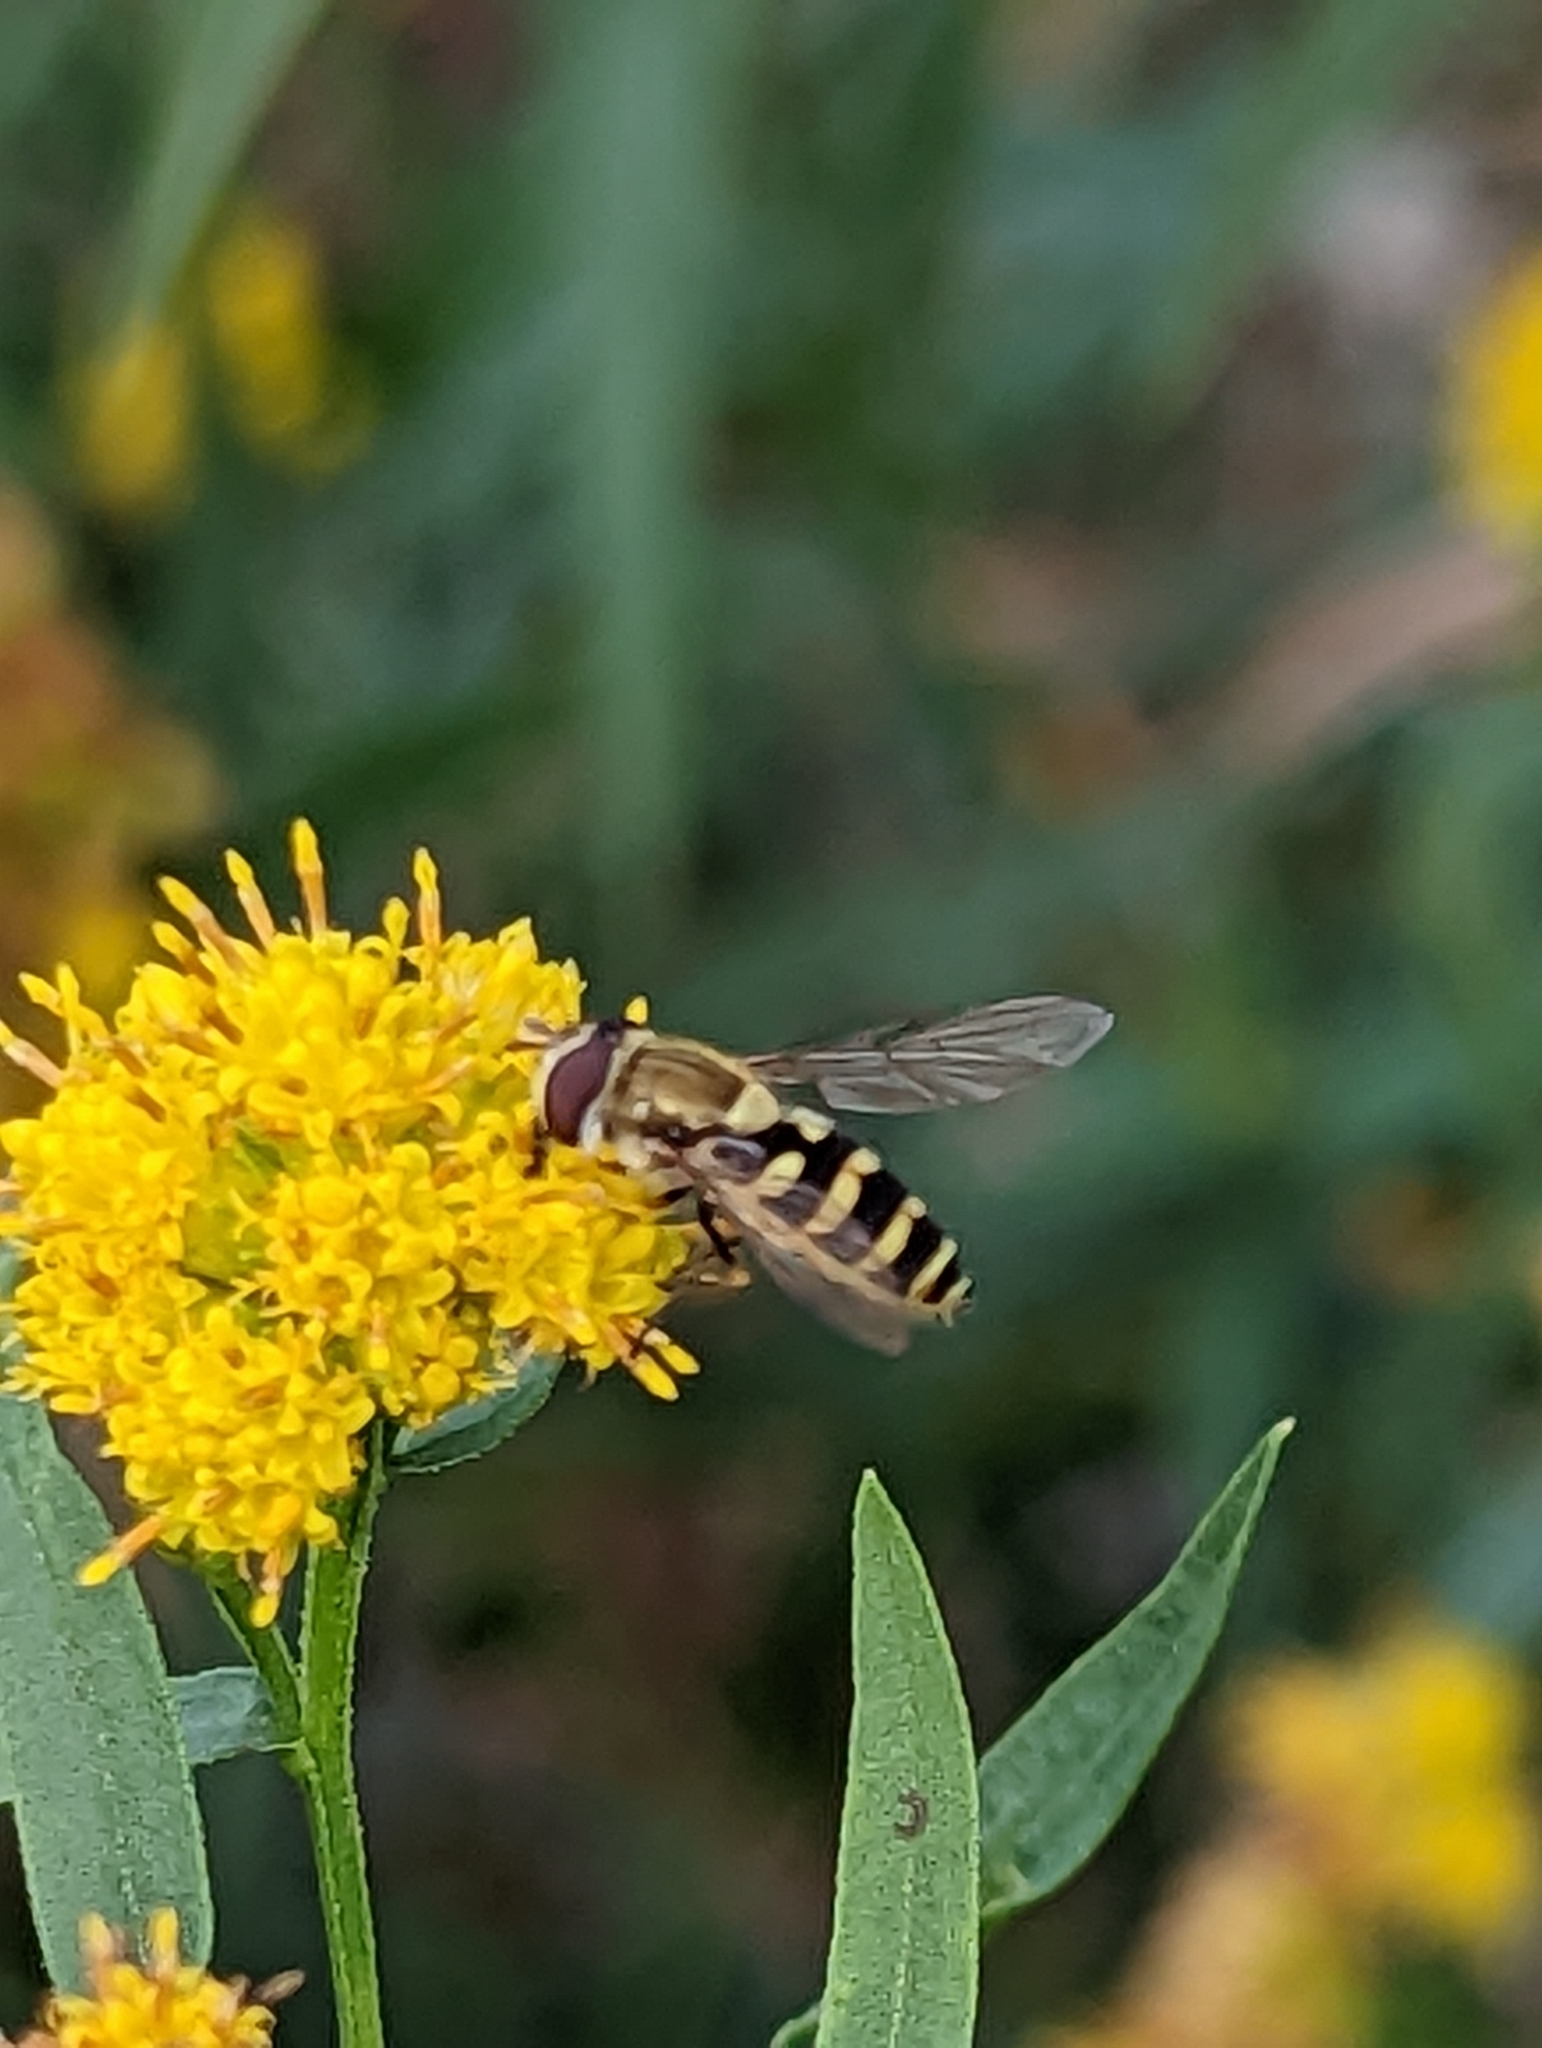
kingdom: Animalia
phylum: Arthropoda
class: Insecta
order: Diptera
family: Syrphidae
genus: Syrphus
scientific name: Syrphus
